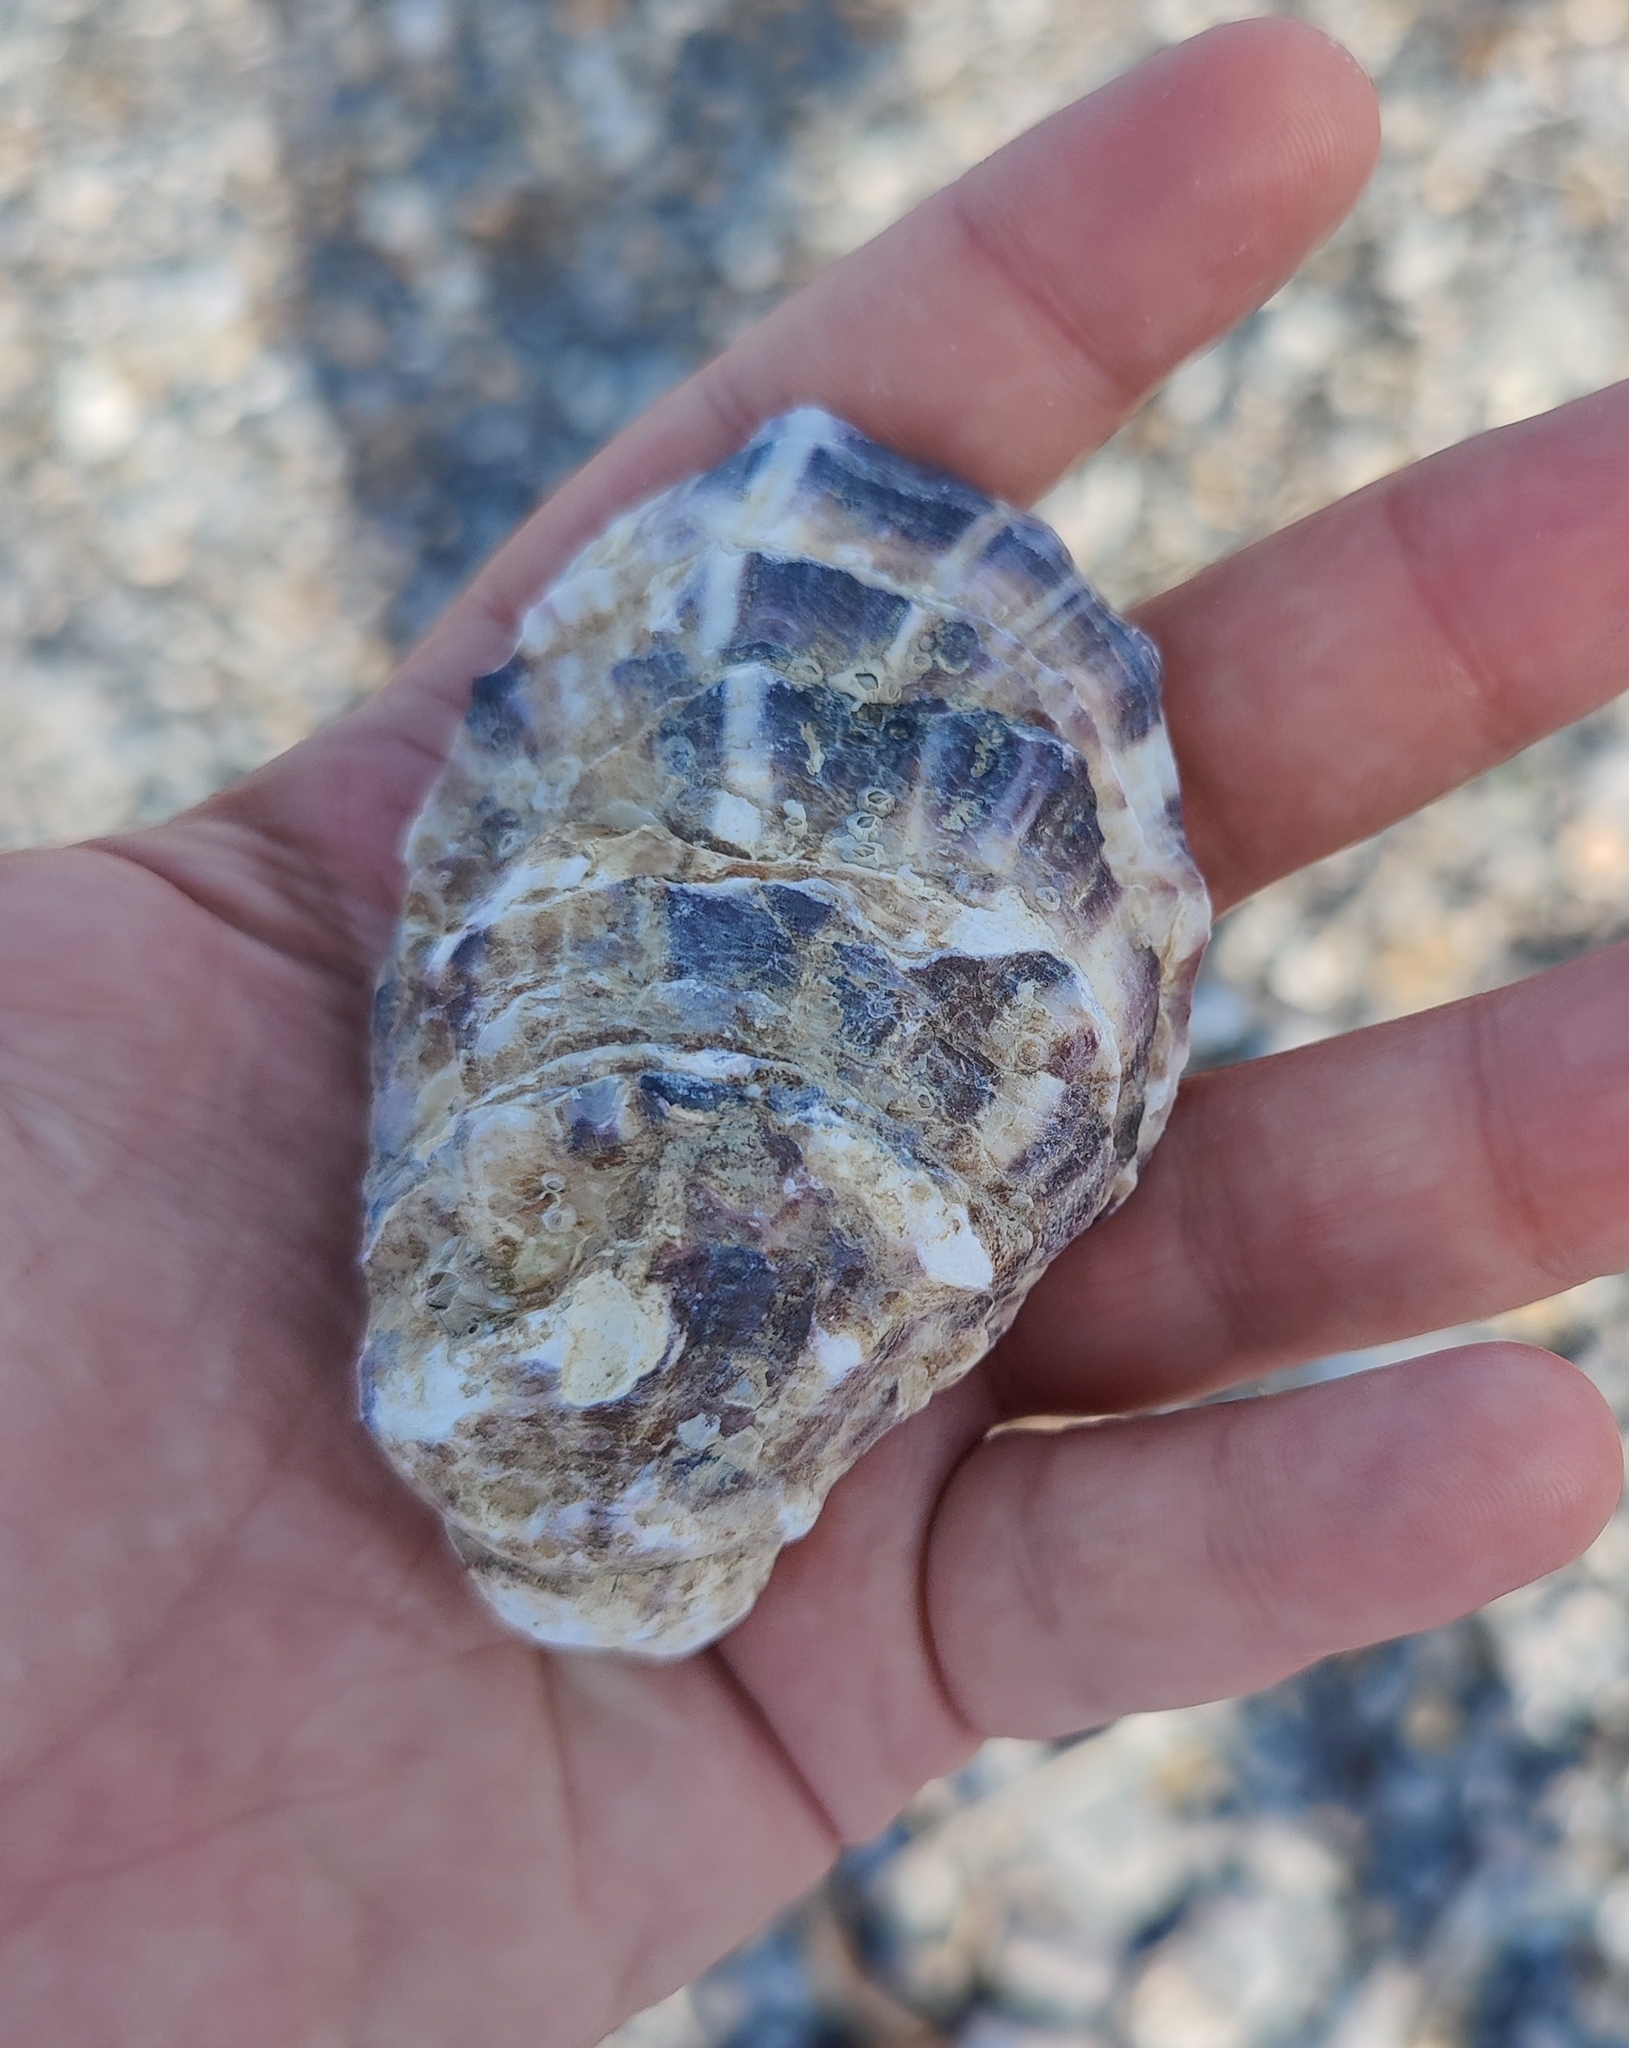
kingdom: Animalia
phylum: Mollusca
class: Bivalvia
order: Ostreida
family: Ostreidae
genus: Magallana
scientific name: Magallana gigas
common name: Pacific oyster
